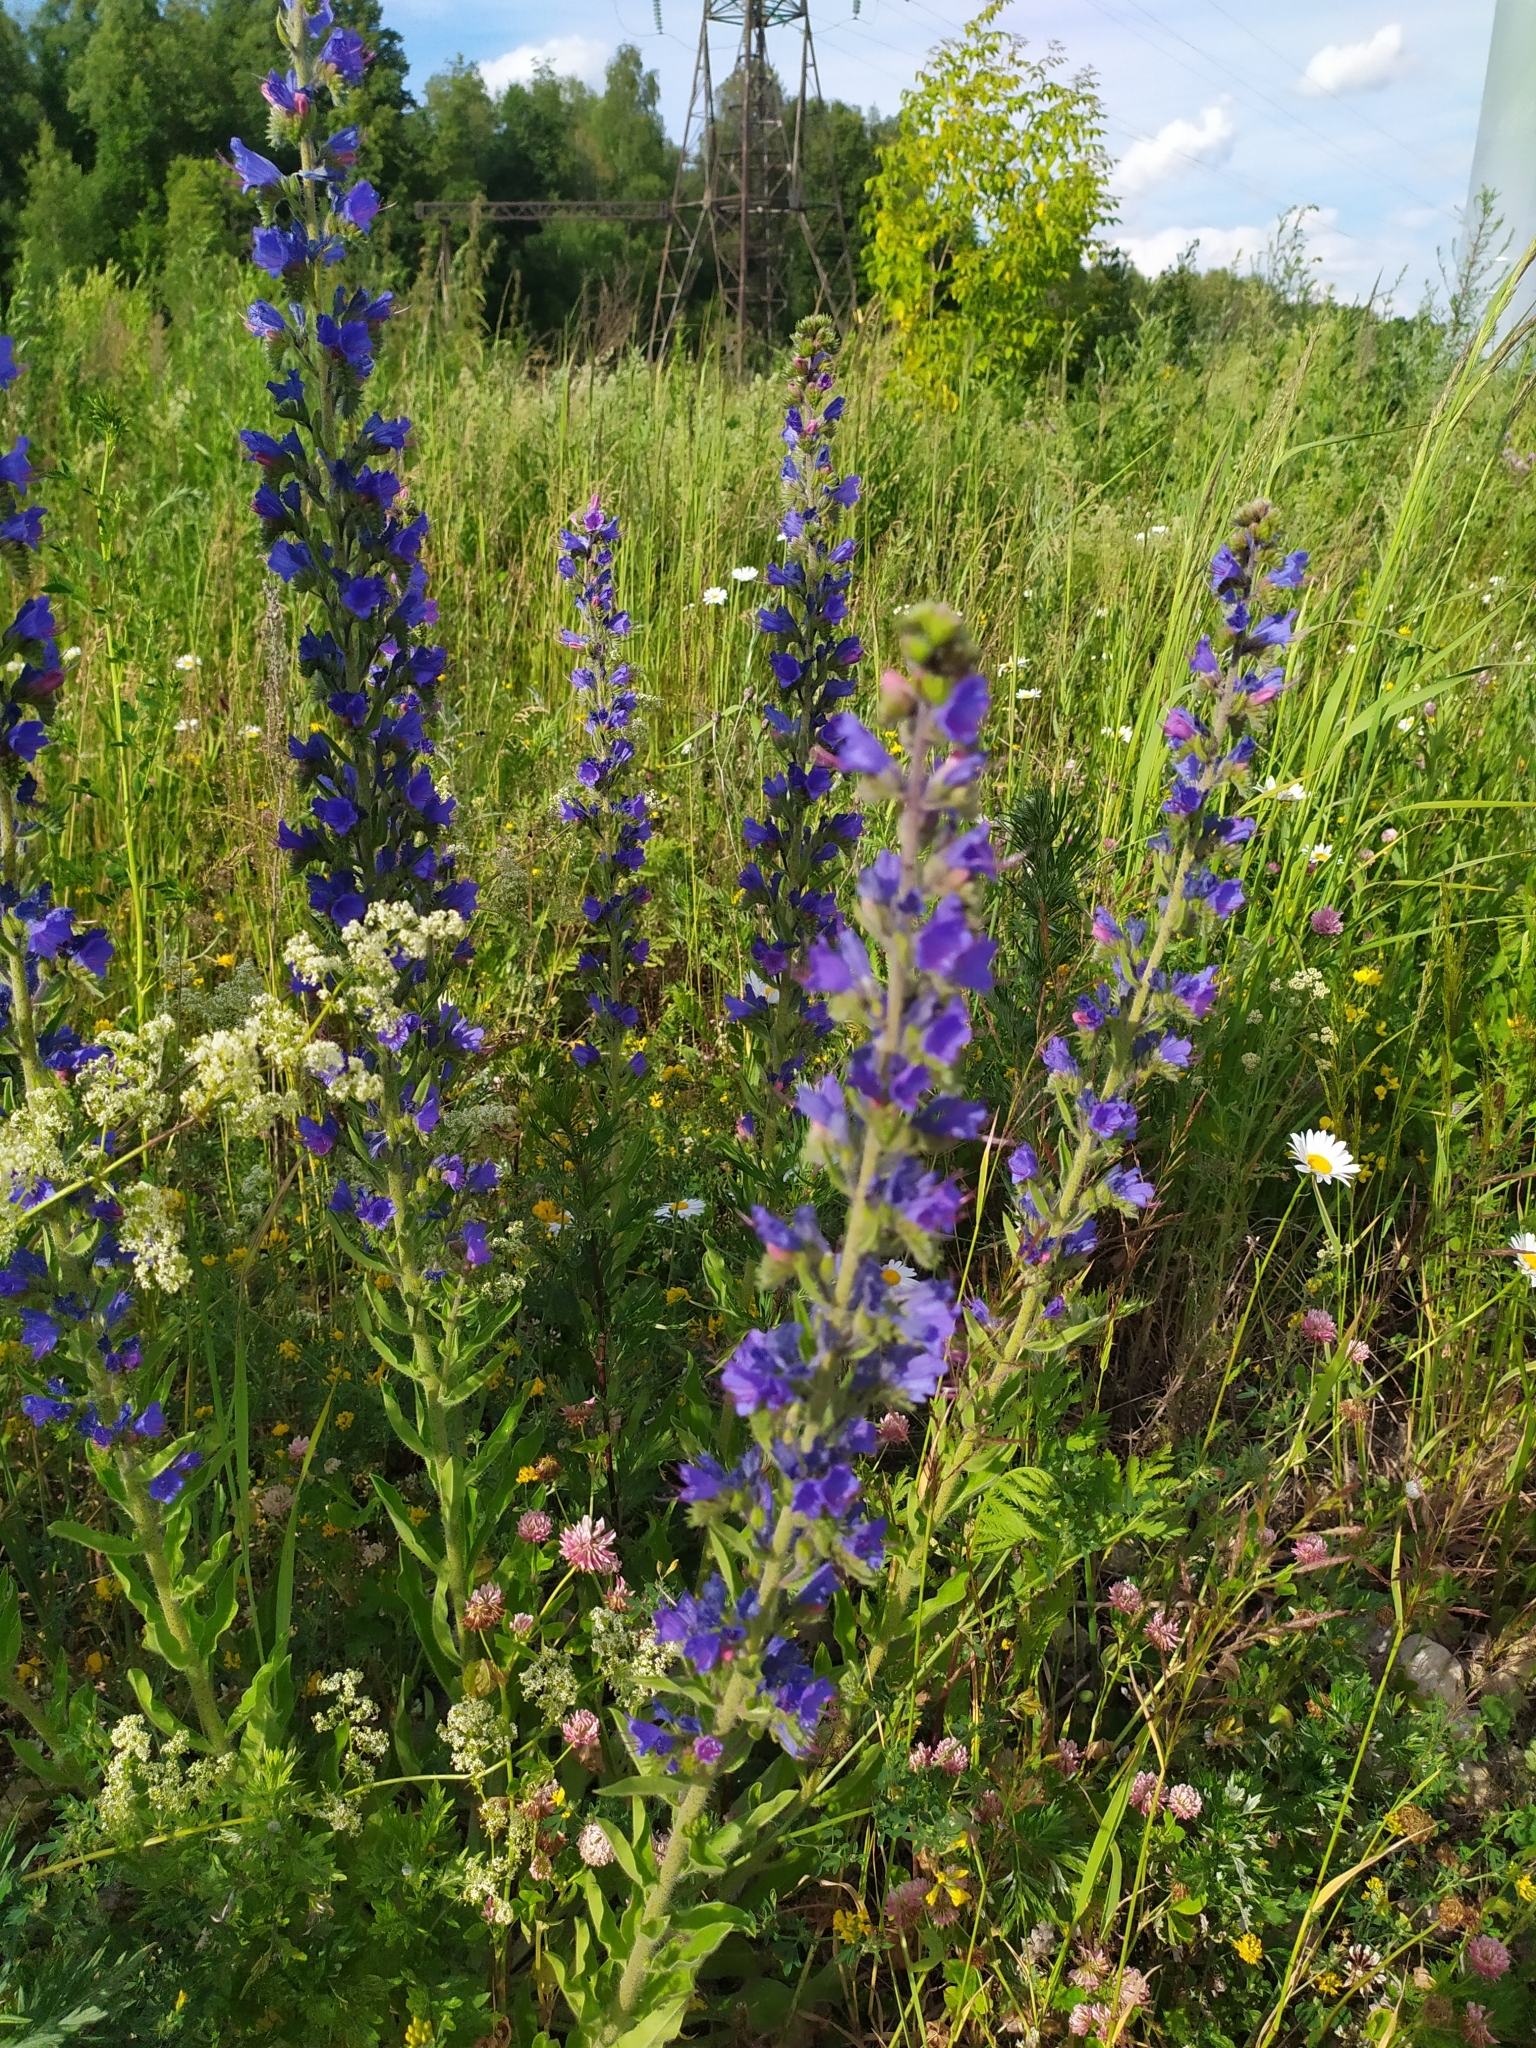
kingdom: Plantae
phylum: Tracheophyta
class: Magnoliopsida
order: Boraginales
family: Boraginaceae
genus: Echium
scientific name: Echium vulgare
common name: Common viper's bugloss
